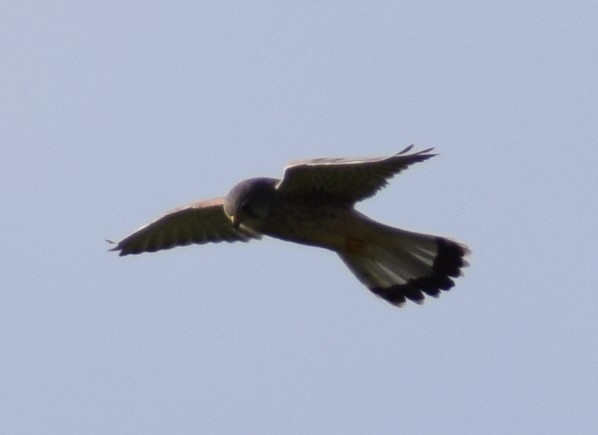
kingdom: Animalia
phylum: Chordata
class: Aves
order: Falconiformes
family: Falconidae
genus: Falco
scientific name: Falco tinnunculus
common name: Common kestrel
